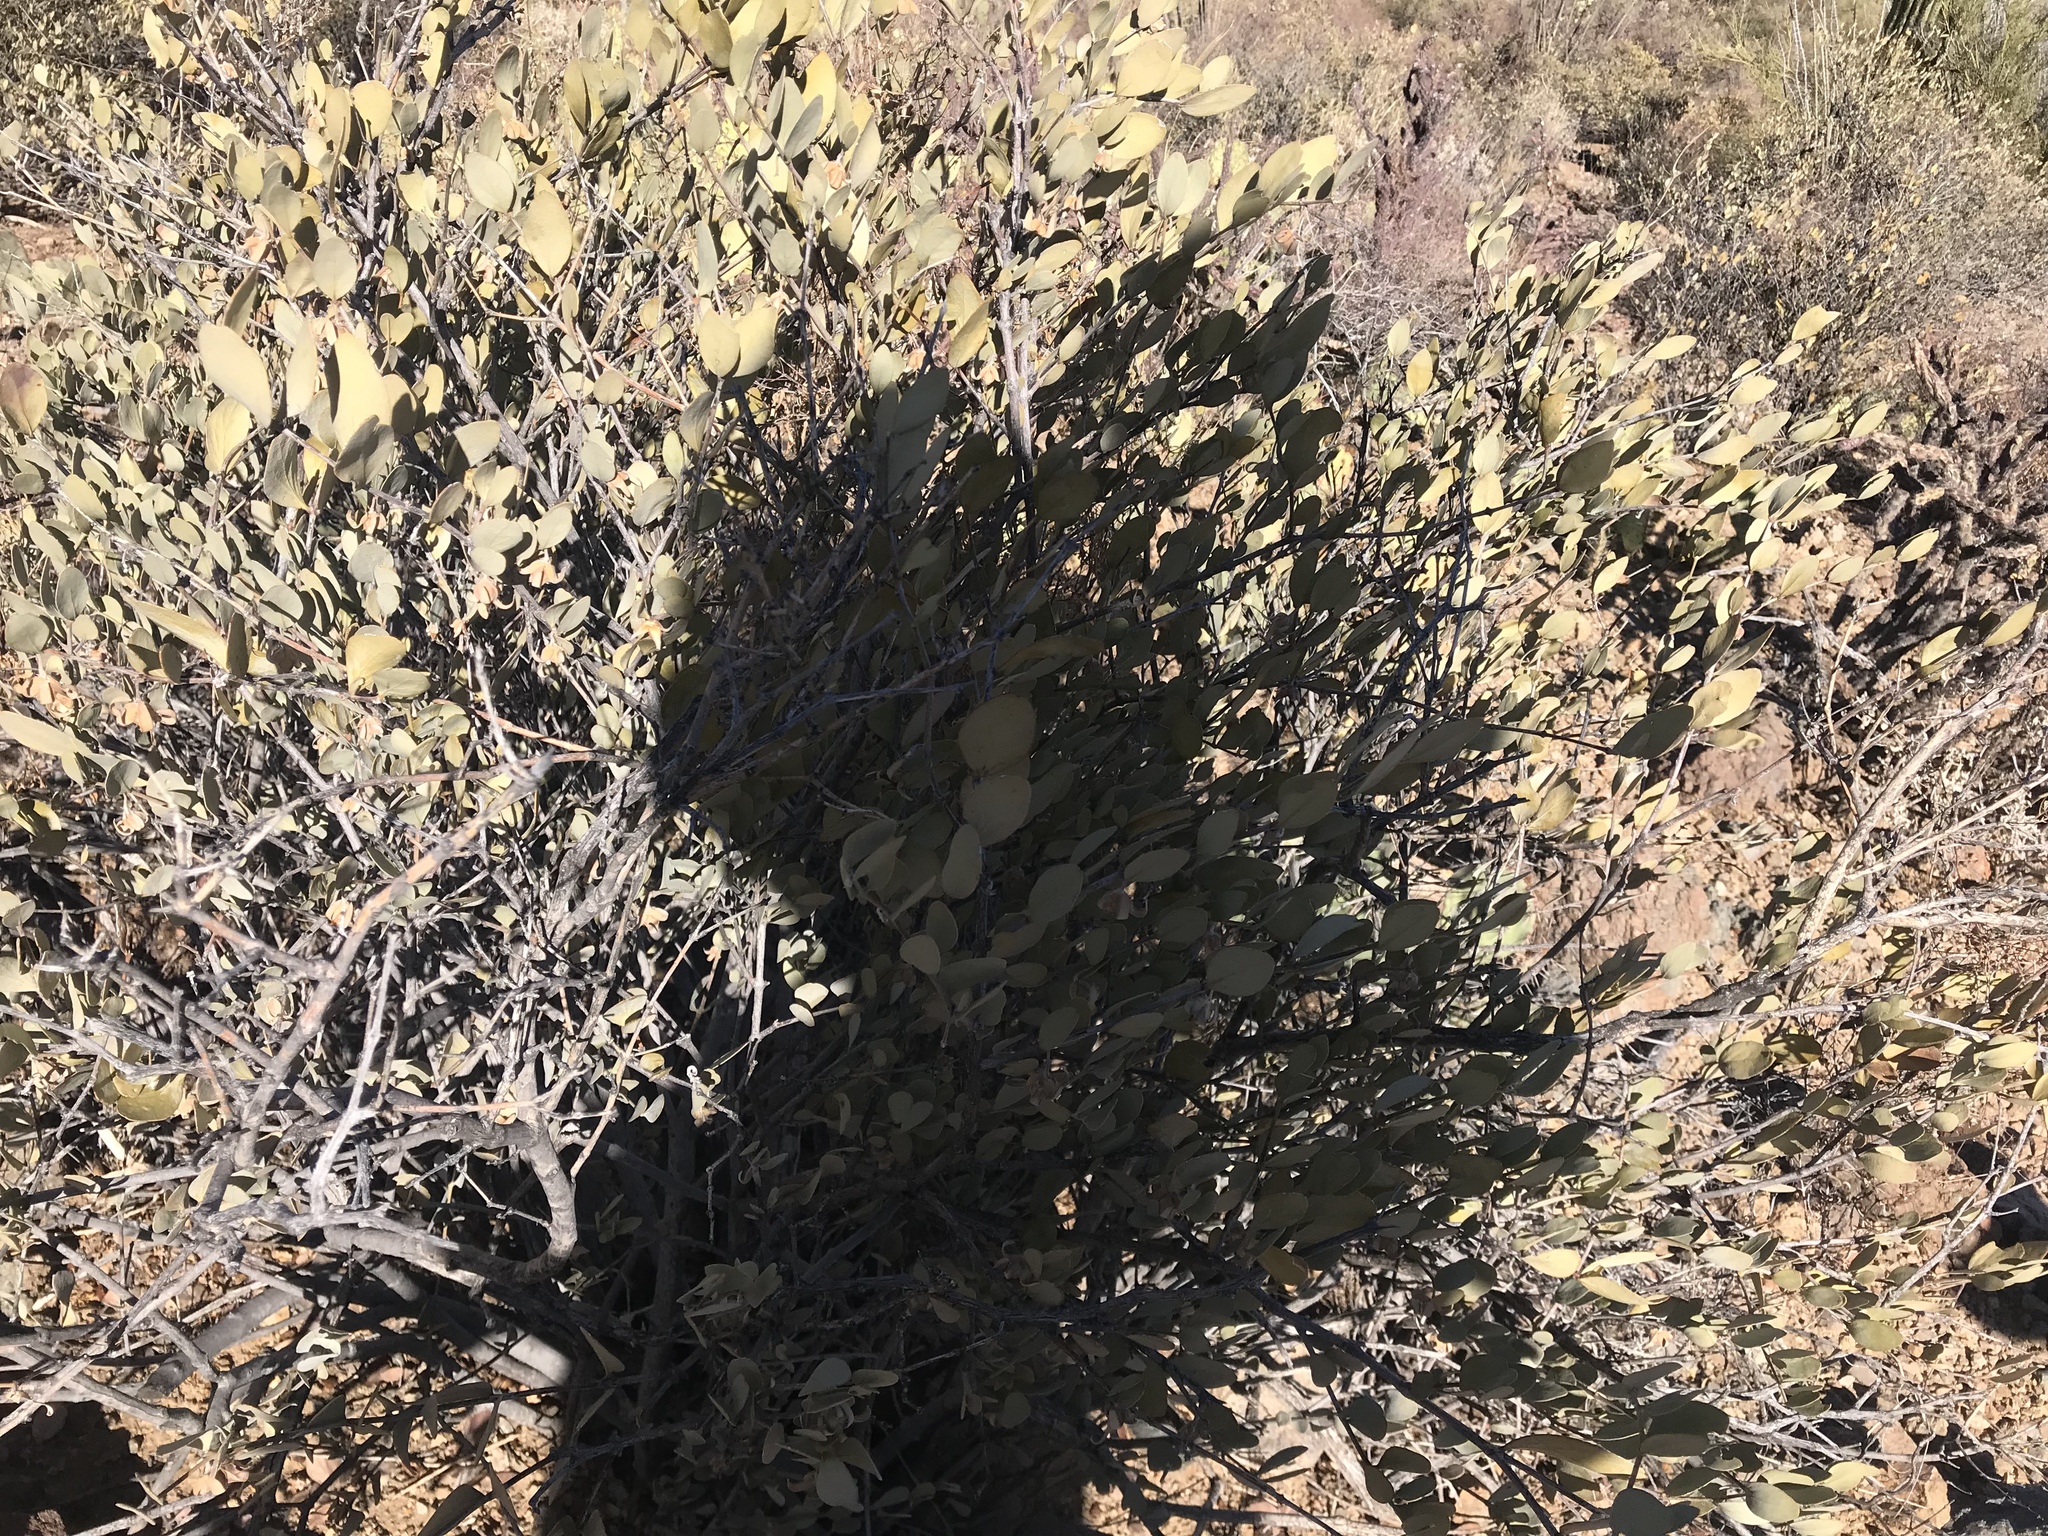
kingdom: Plantae
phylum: Tracheophyta
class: Magnoliopsida
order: Caryophyllales
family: Simmondsiaceae
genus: Simmondsia
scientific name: Simmondsia chinensis
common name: Jojoba
